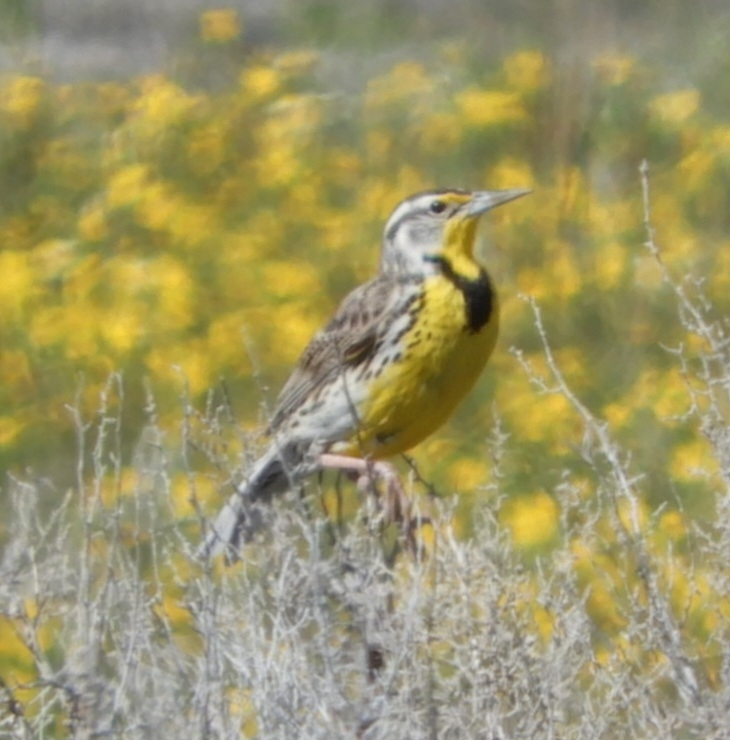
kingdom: Animalia
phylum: Chordata
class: Aves
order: Passeriformes
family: Icteridae
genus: Sturnella
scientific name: Sturnella neglecta
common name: Western meadowlark
